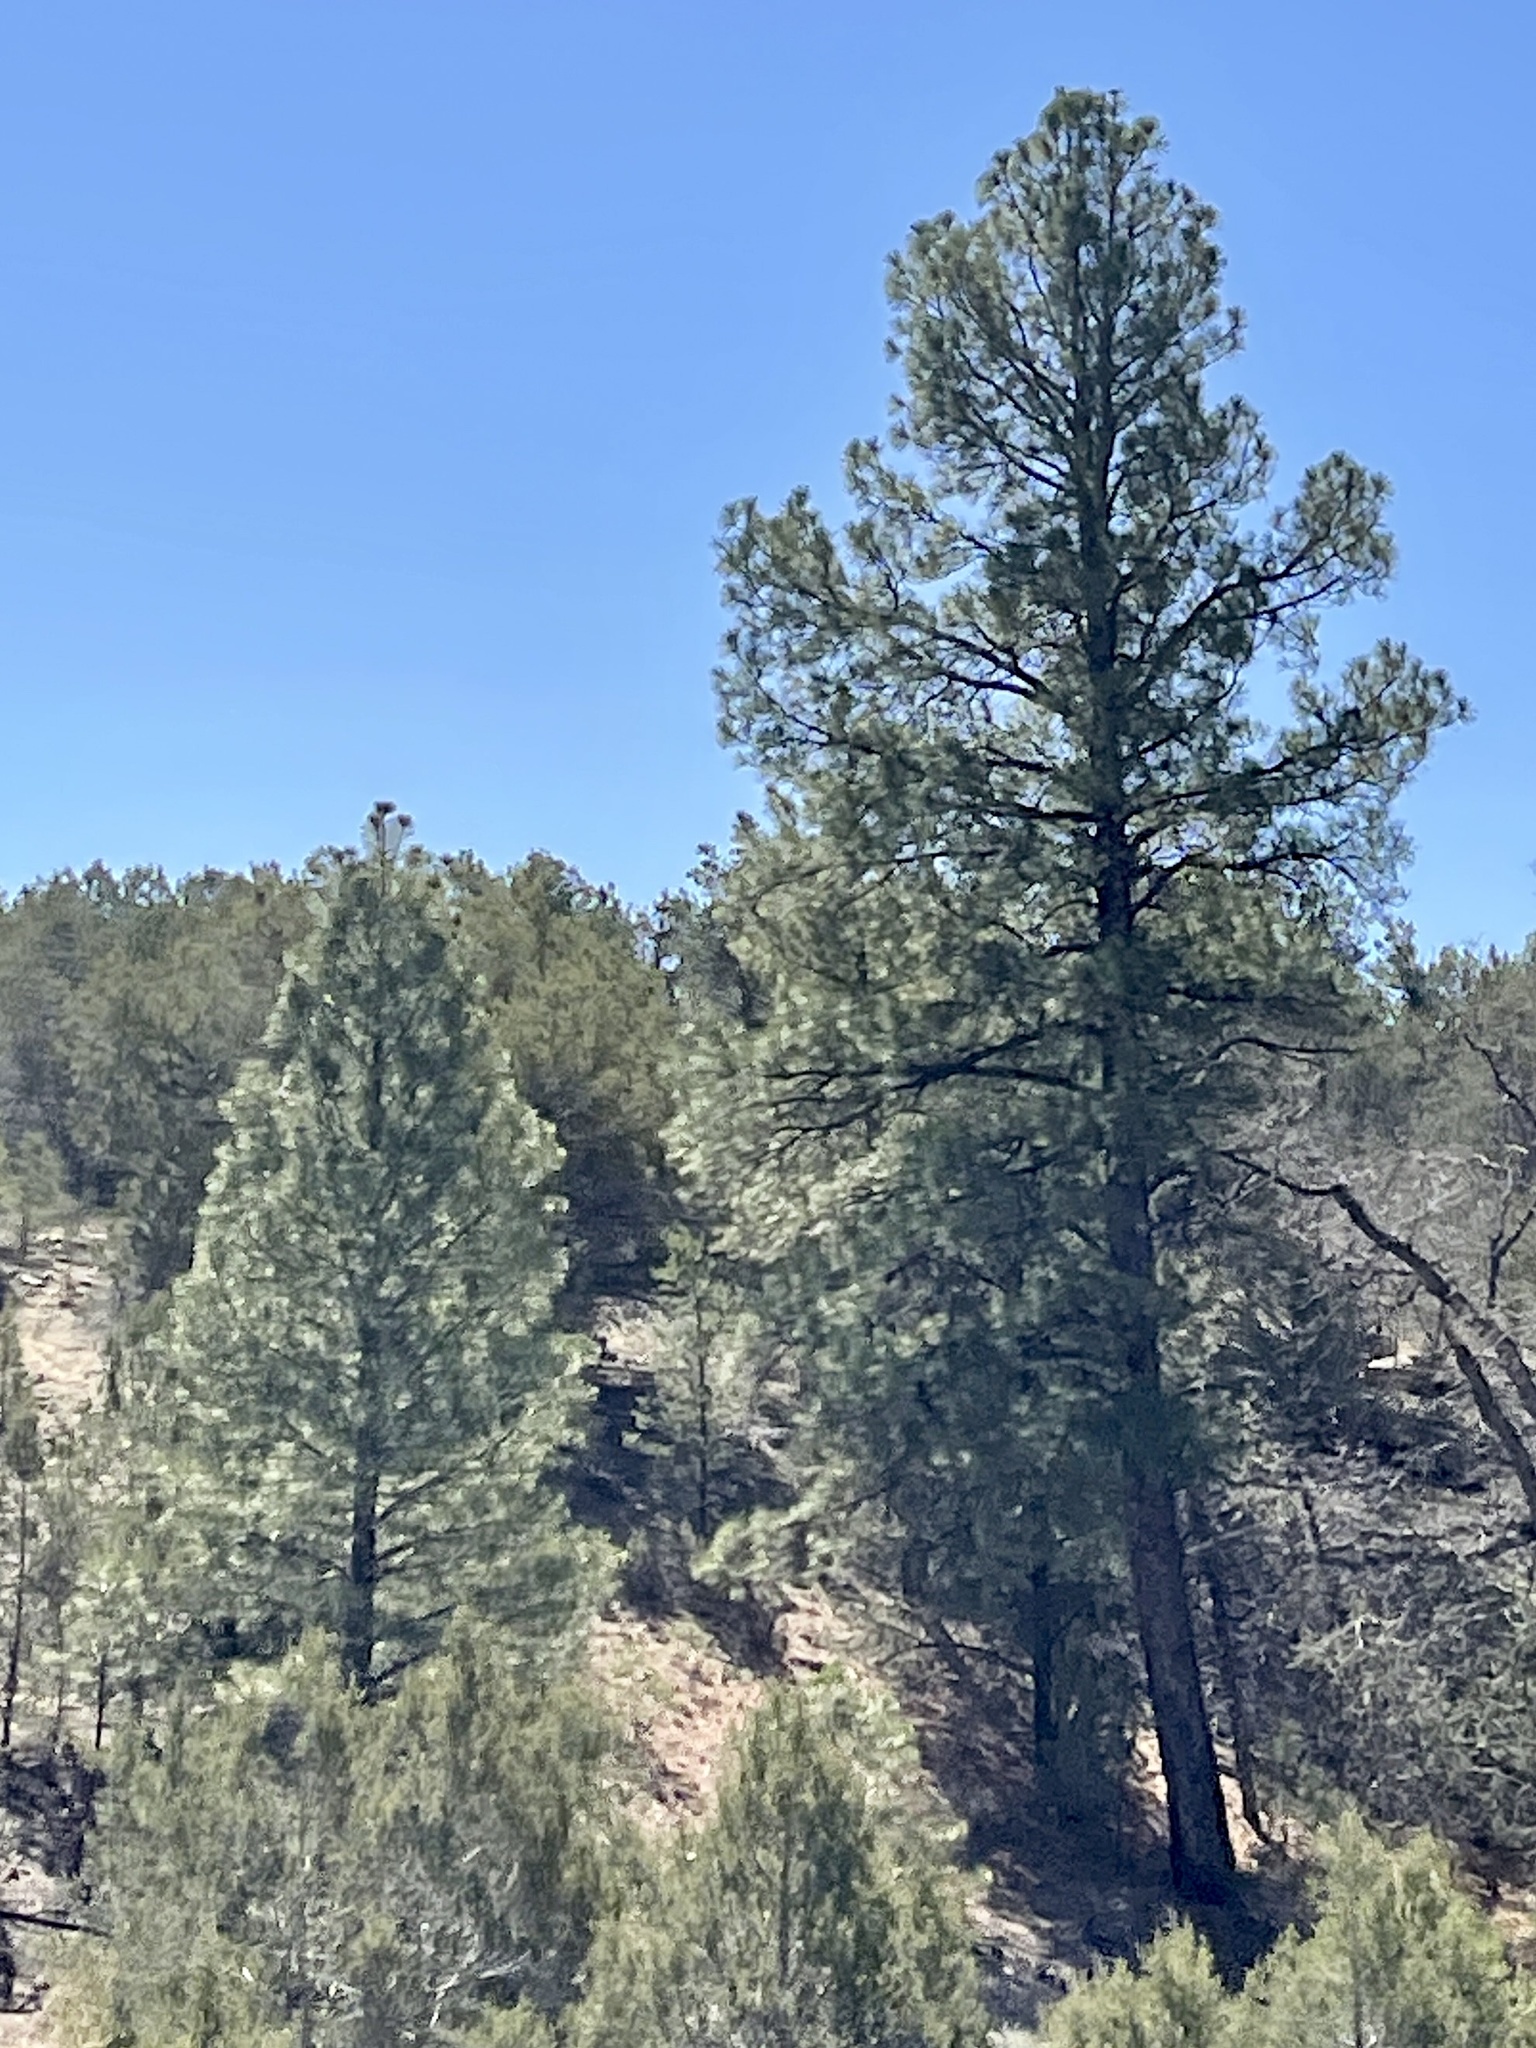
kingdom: Plantae
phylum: Tracheophyta
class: Pinopsida
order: Pinales
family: Pinaceae
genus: Pinus
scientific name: Pinus ponderosa
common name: Western yellow-pine
